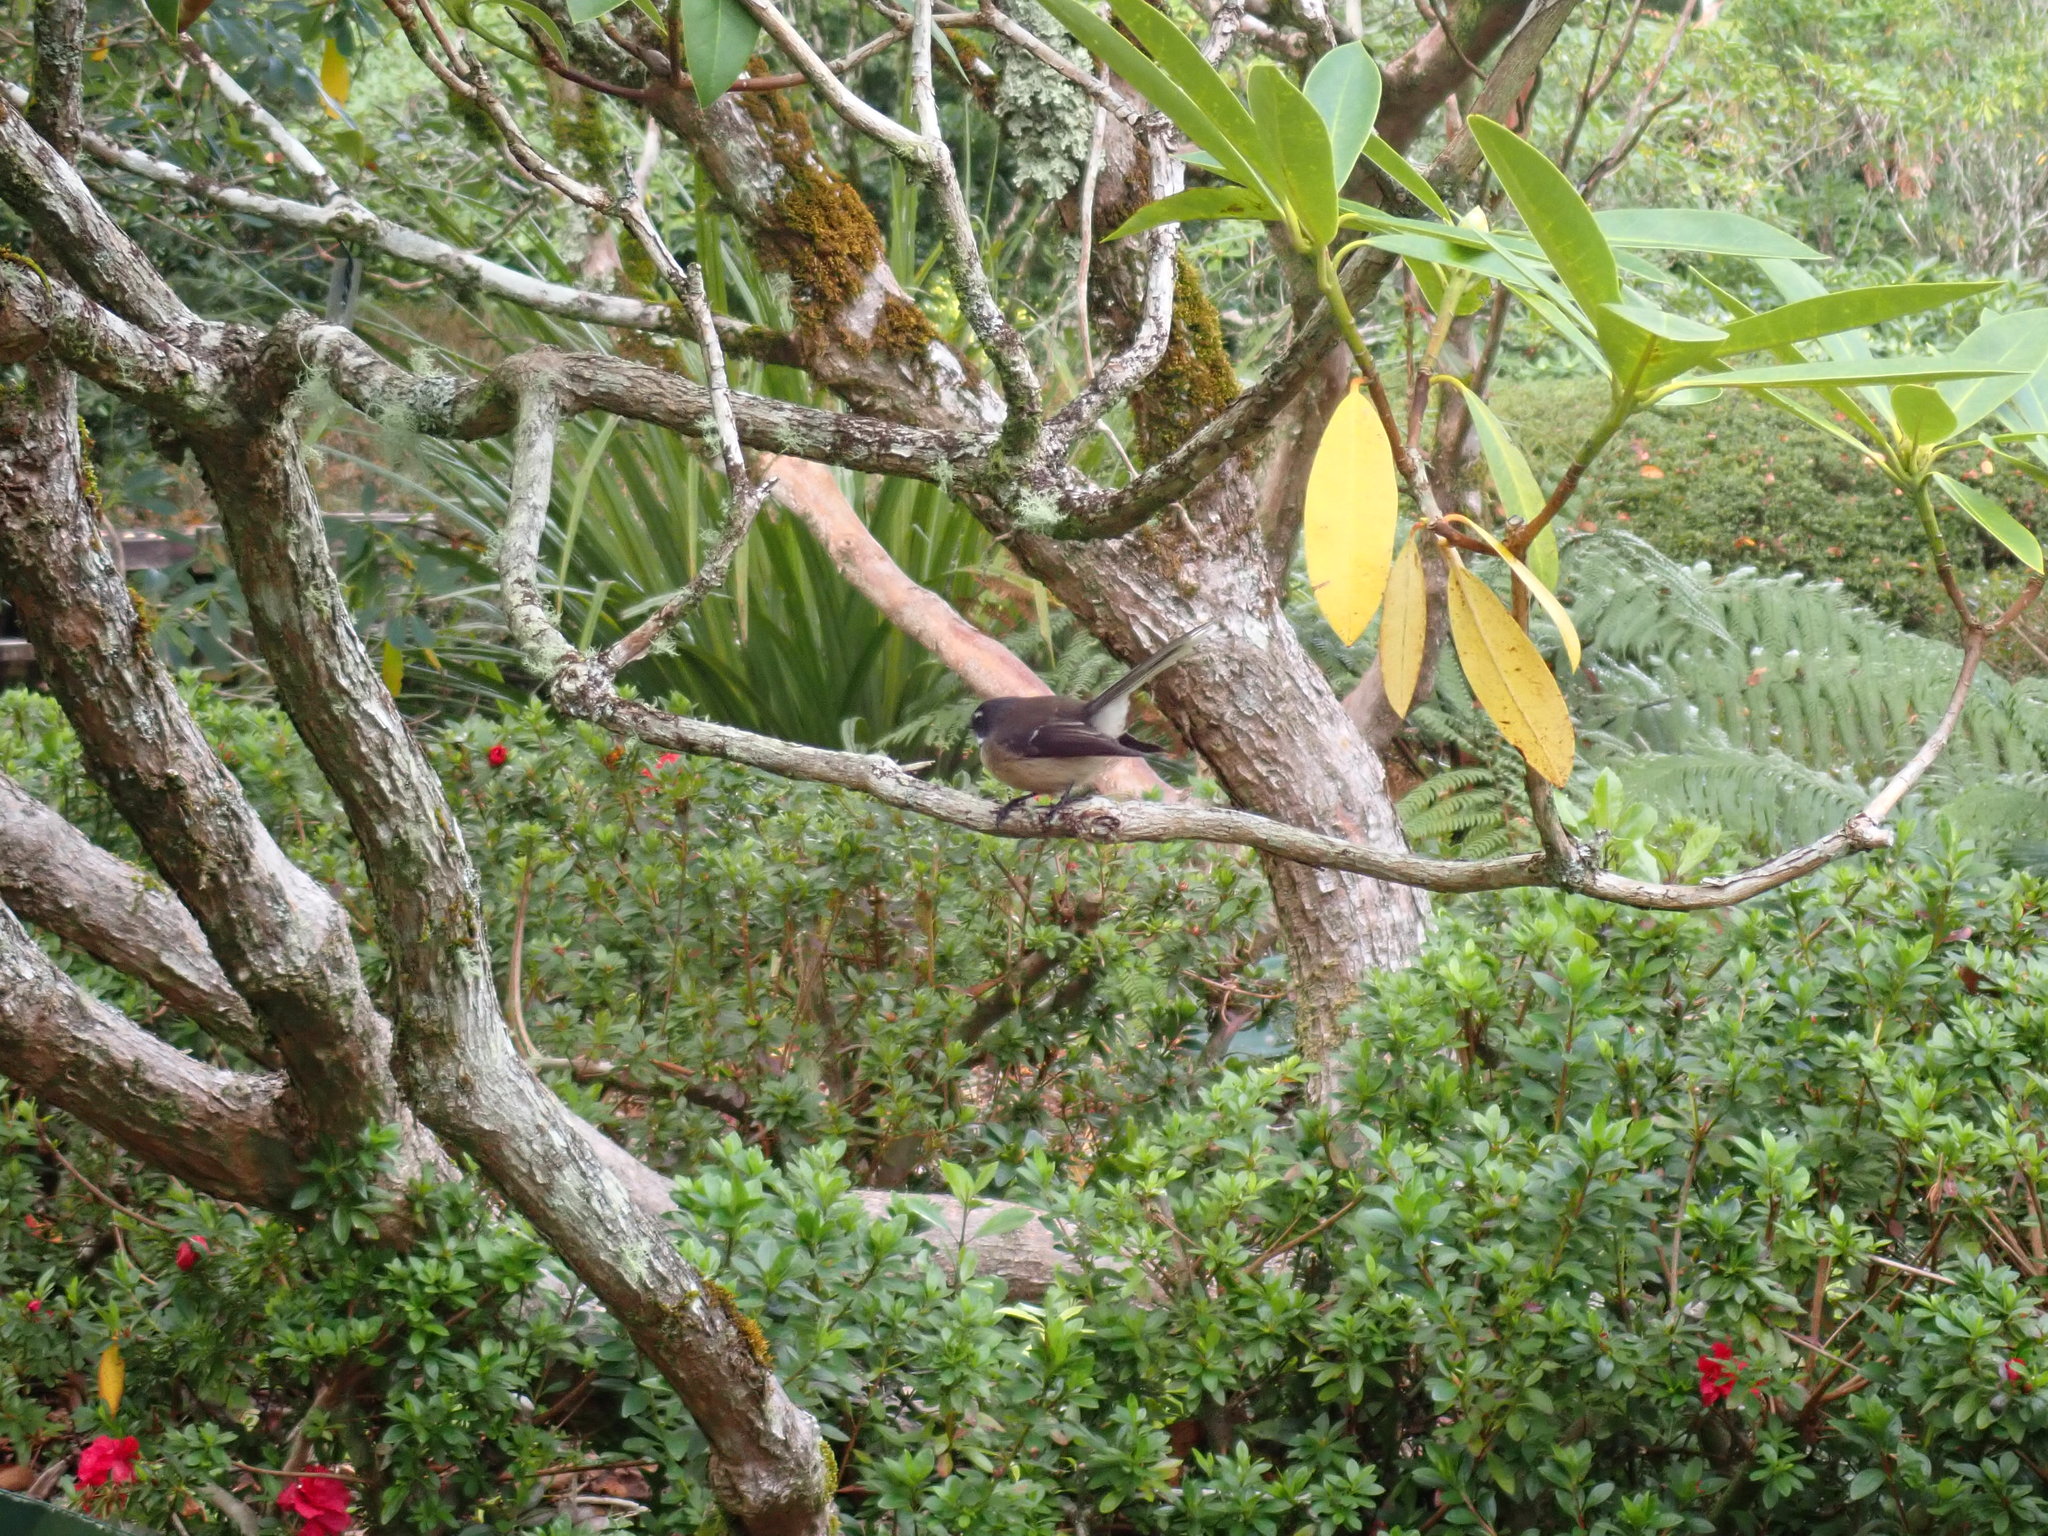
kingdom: Animalia
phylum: Chordata
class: Aves
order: Passeriformes
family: Rhipiduridae
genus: Rhipidura
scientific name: Rhipidura fuliginosa
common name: New zealand fantail
